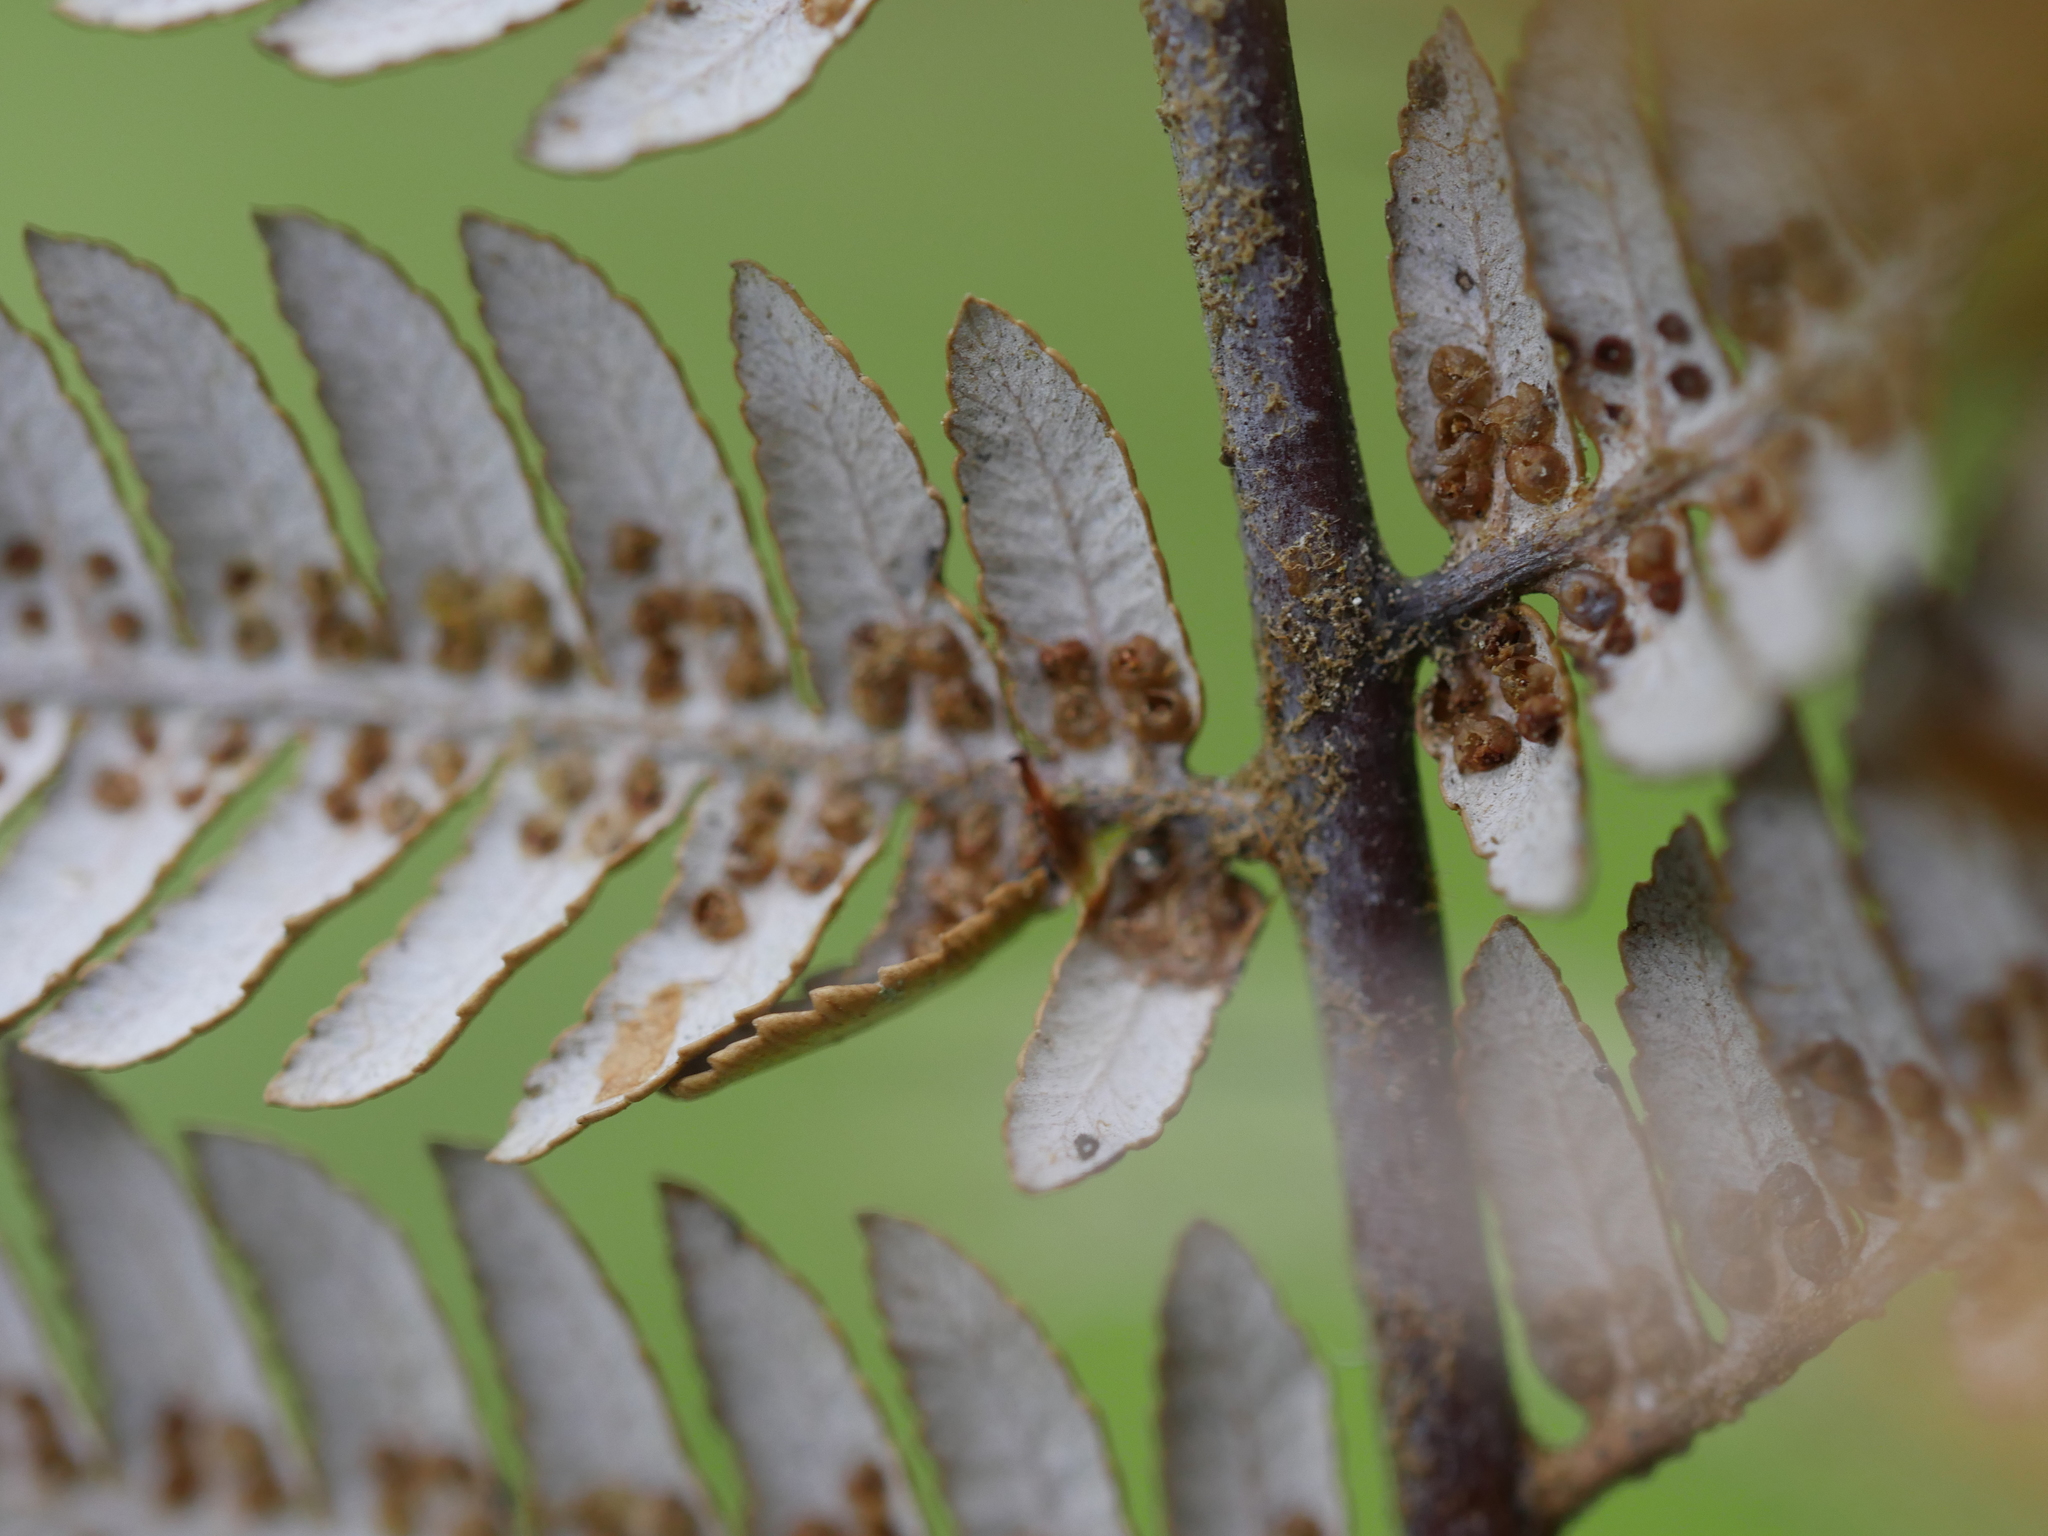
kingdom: Plantae
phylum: Tracheophyta
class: Polypodiopsida
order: Cyatheales
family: Cyatheaceae
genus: Alsophila
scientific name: Alsophila dealbata
